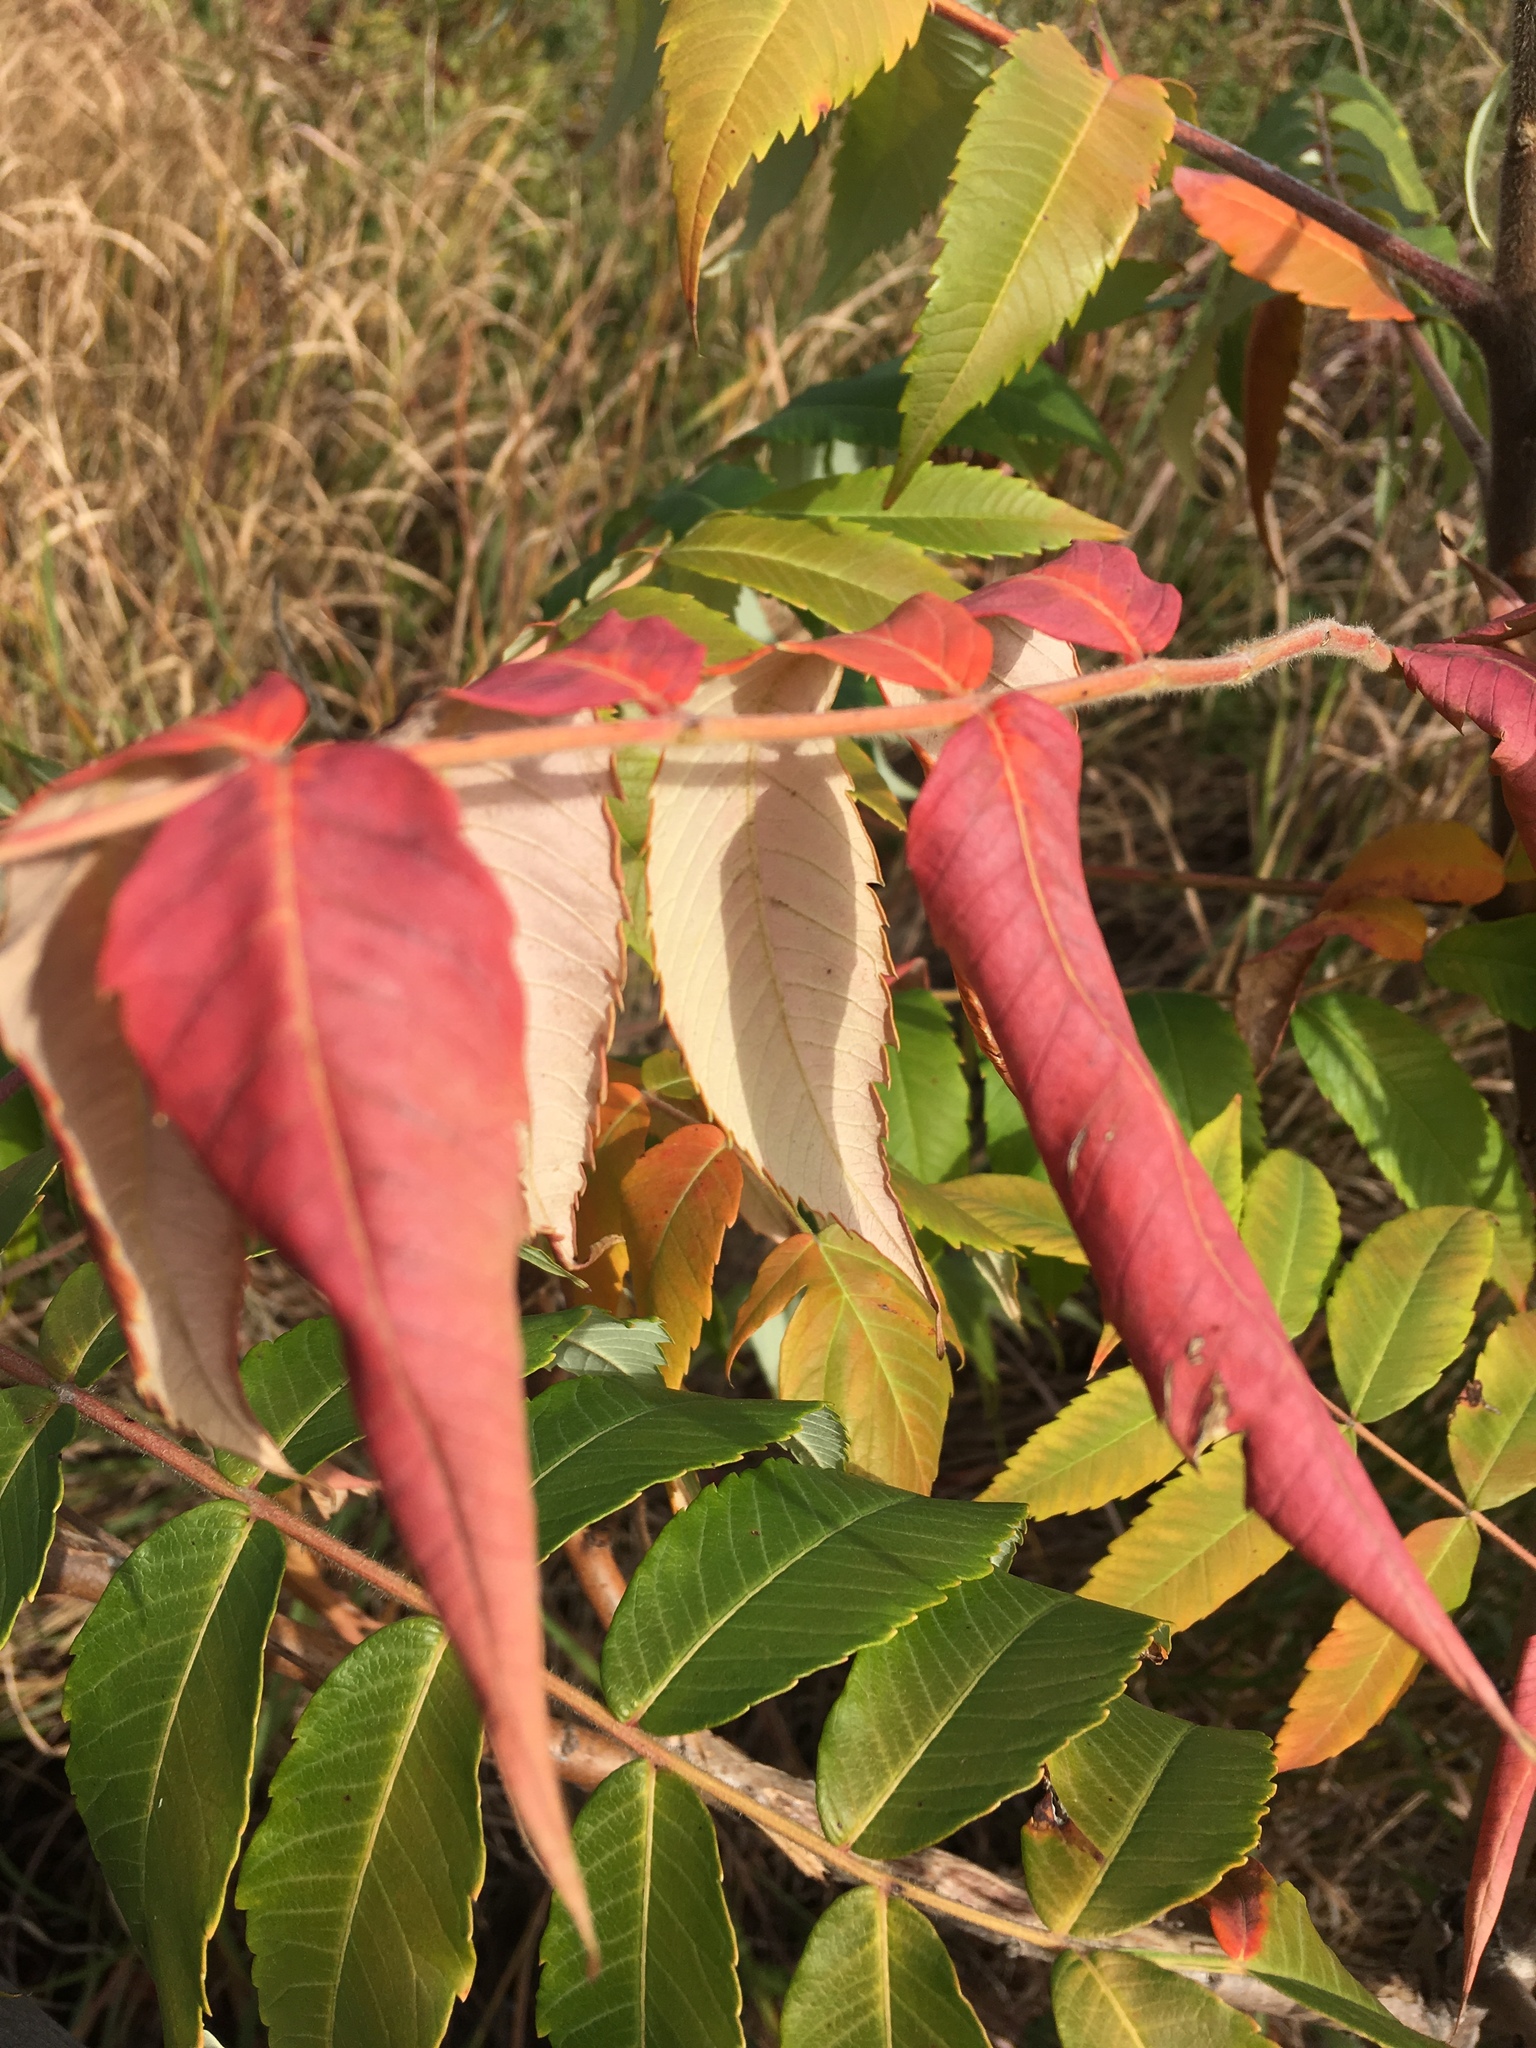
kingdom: Plantae
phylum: Tracheophyta
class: Magnoliopsida
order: Sapindales
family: Anacardiaceae
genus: Rhus
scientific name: Rhus typhina
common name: Staghorn sumac
